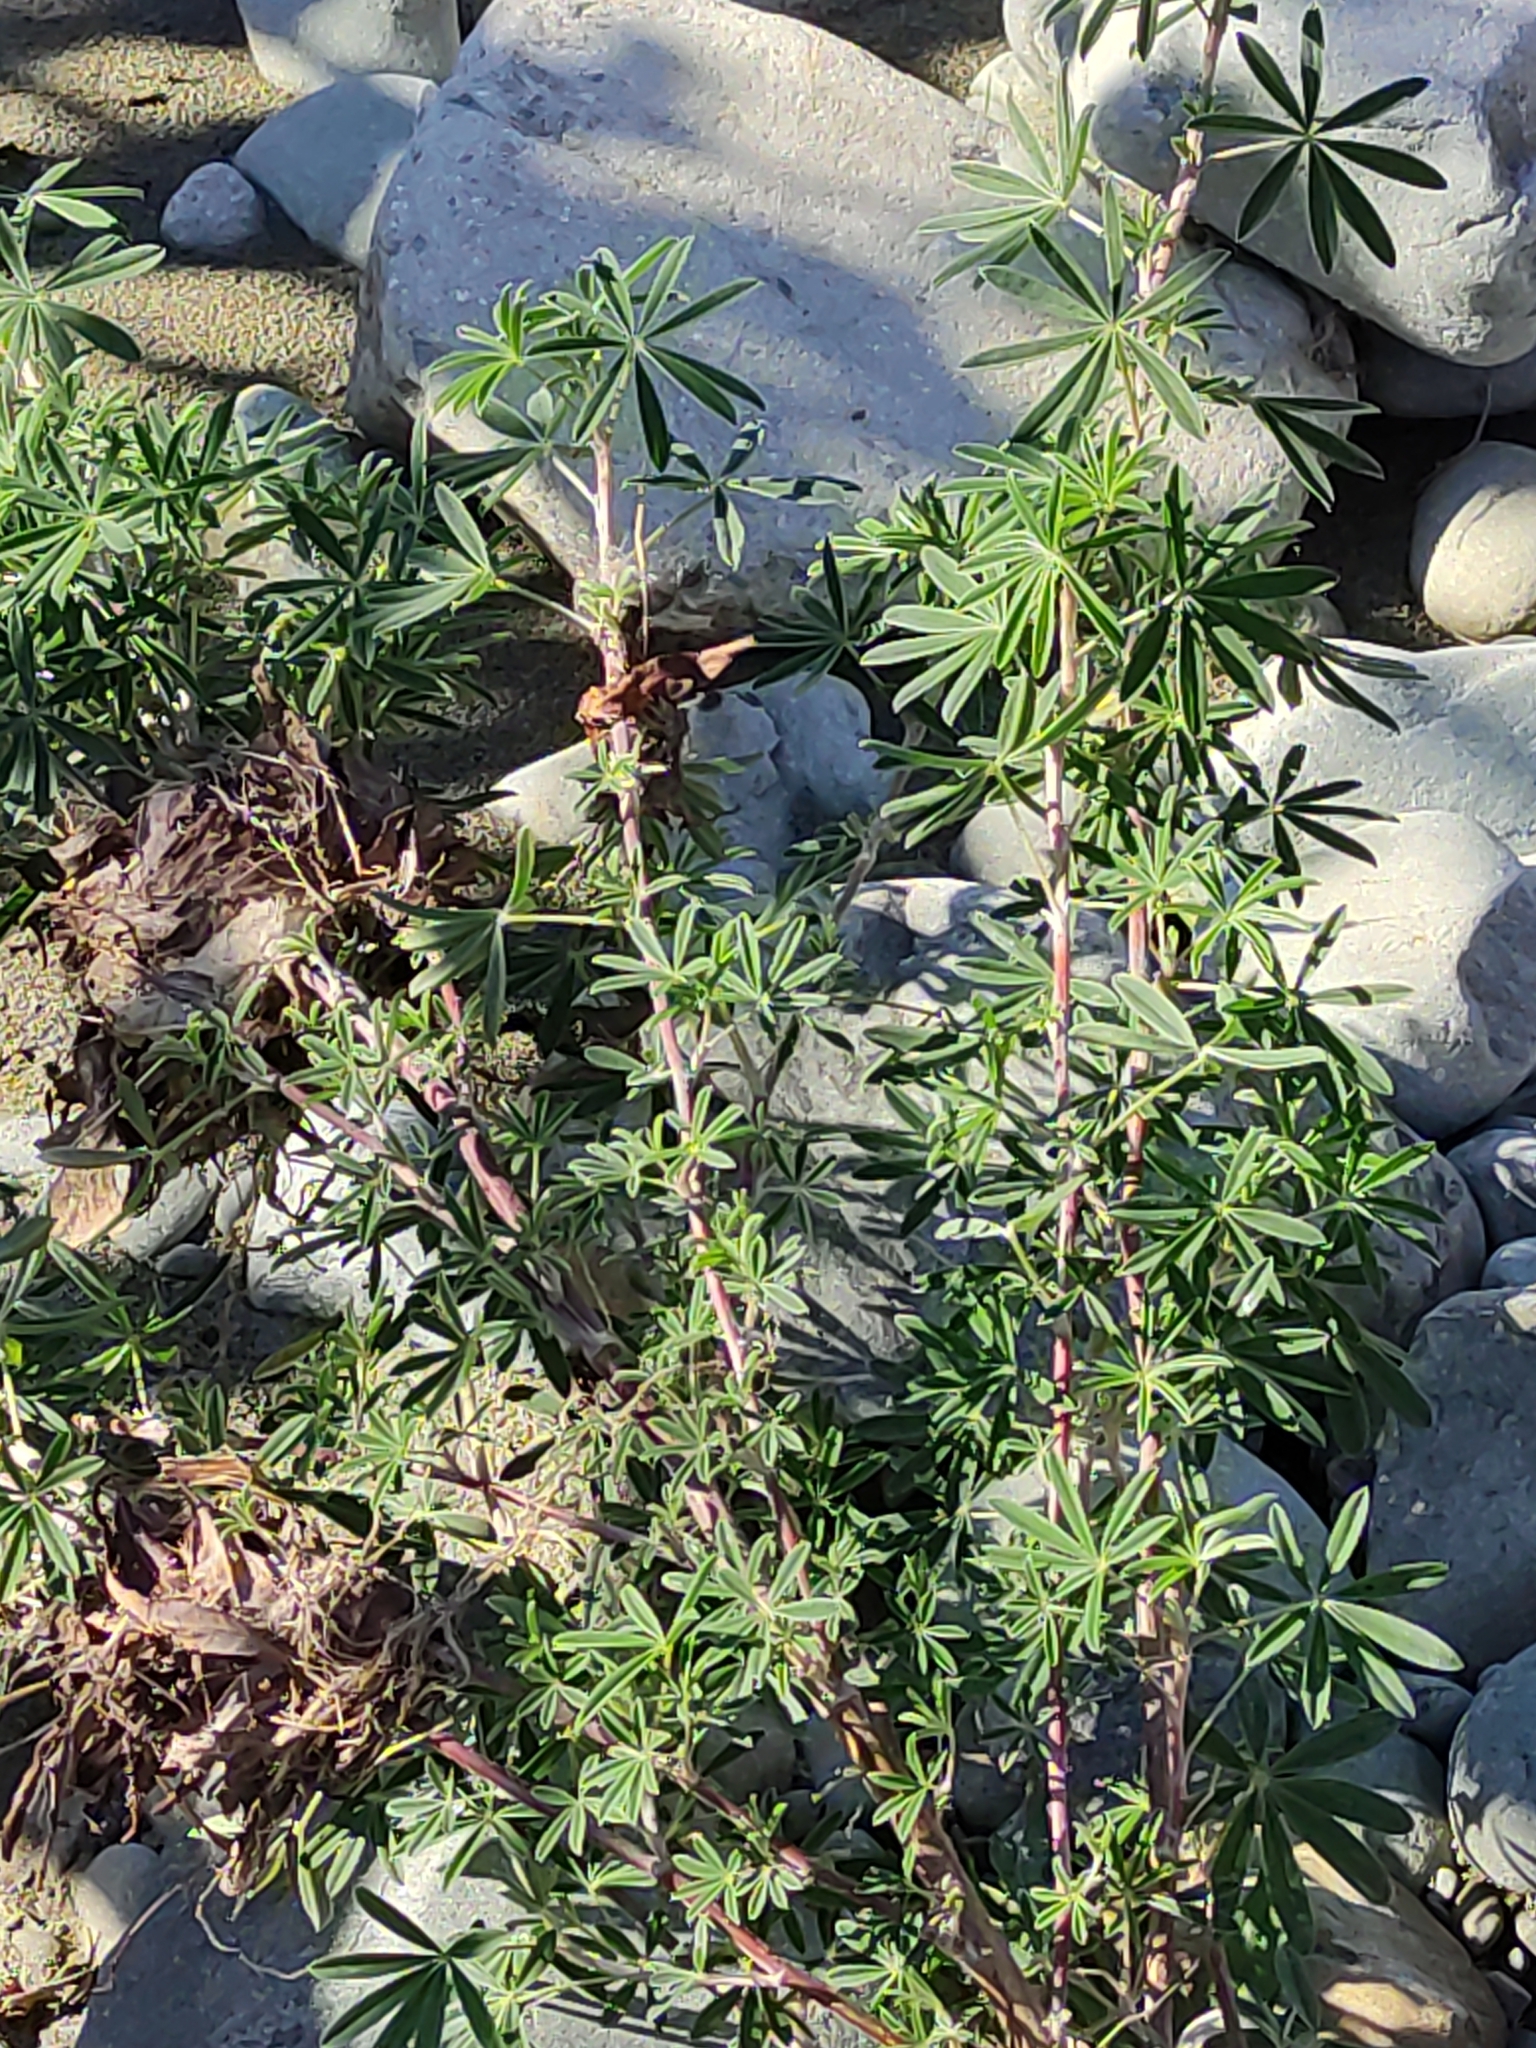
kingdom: Plantae
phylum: Tracheophyta
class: Magnoliopsida
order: Fabales
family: Fabaceae
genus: Lupinus
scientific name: Lupinus polyphyllus
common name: Garden lupin
